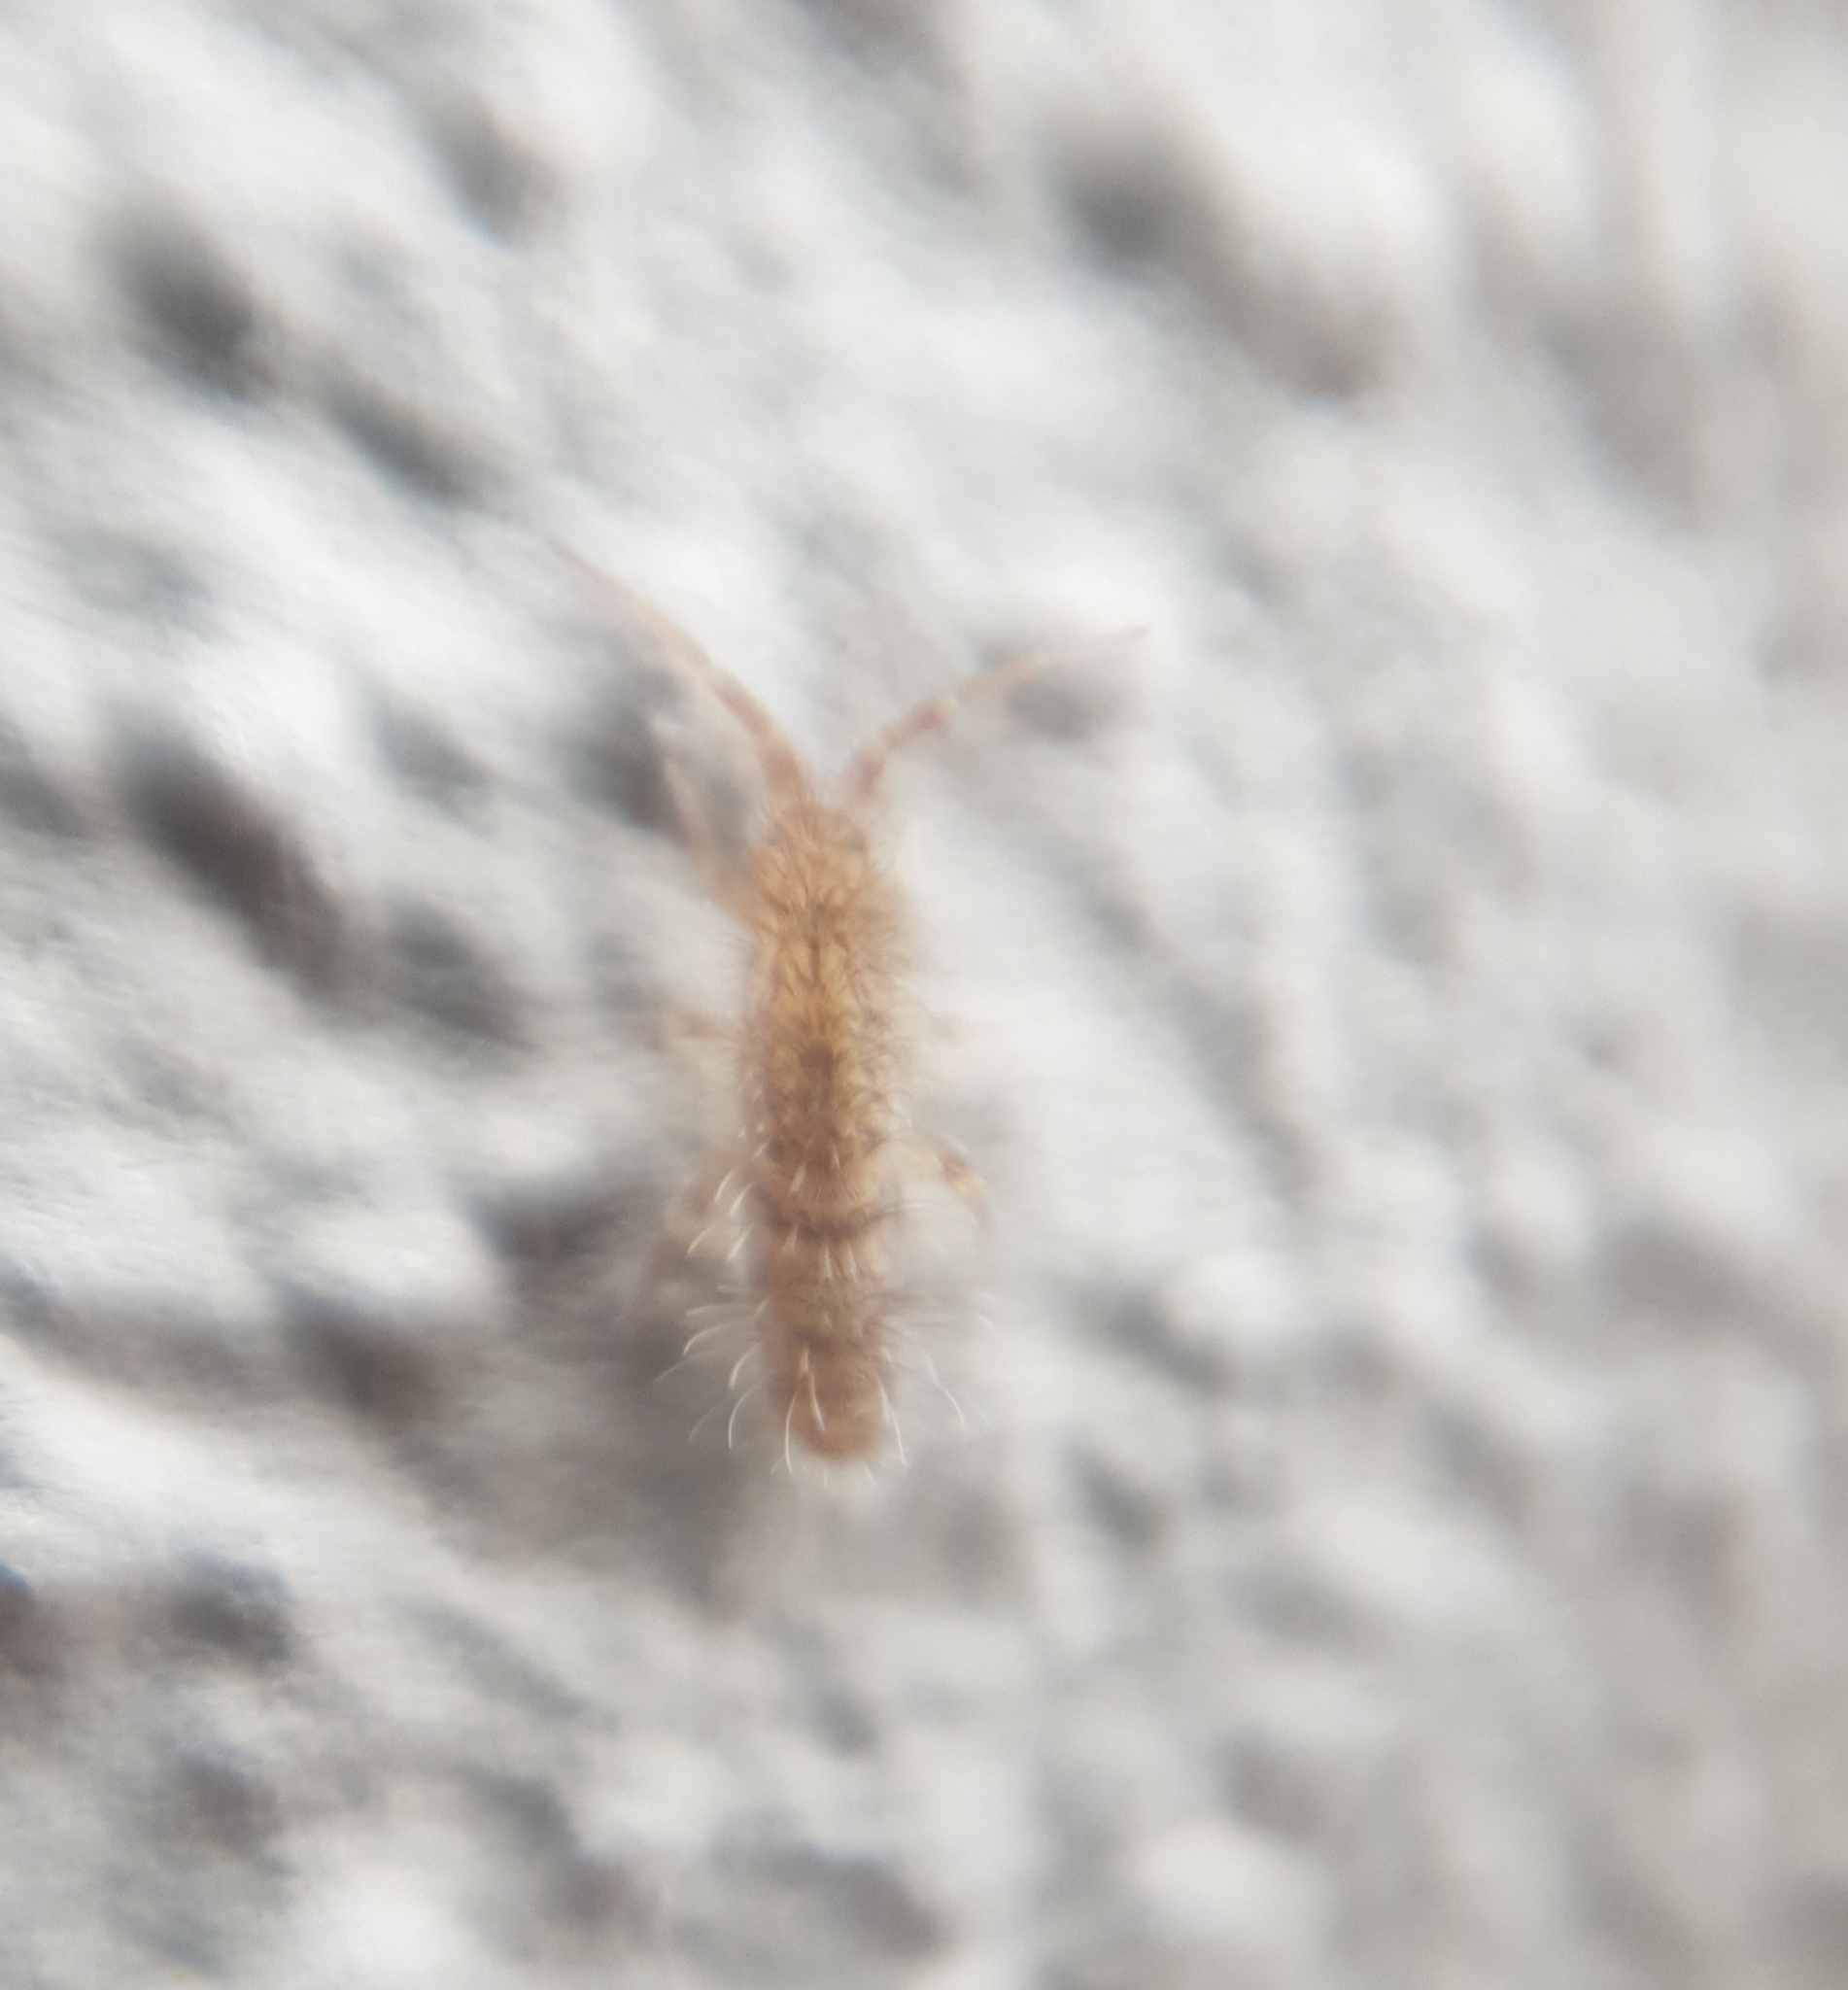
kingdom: Animalia
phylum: Arthropoda
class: Collembola
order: Entomobryomorpha
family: Orchesellidae
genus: Orchesella
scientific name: Orchesella villosa
